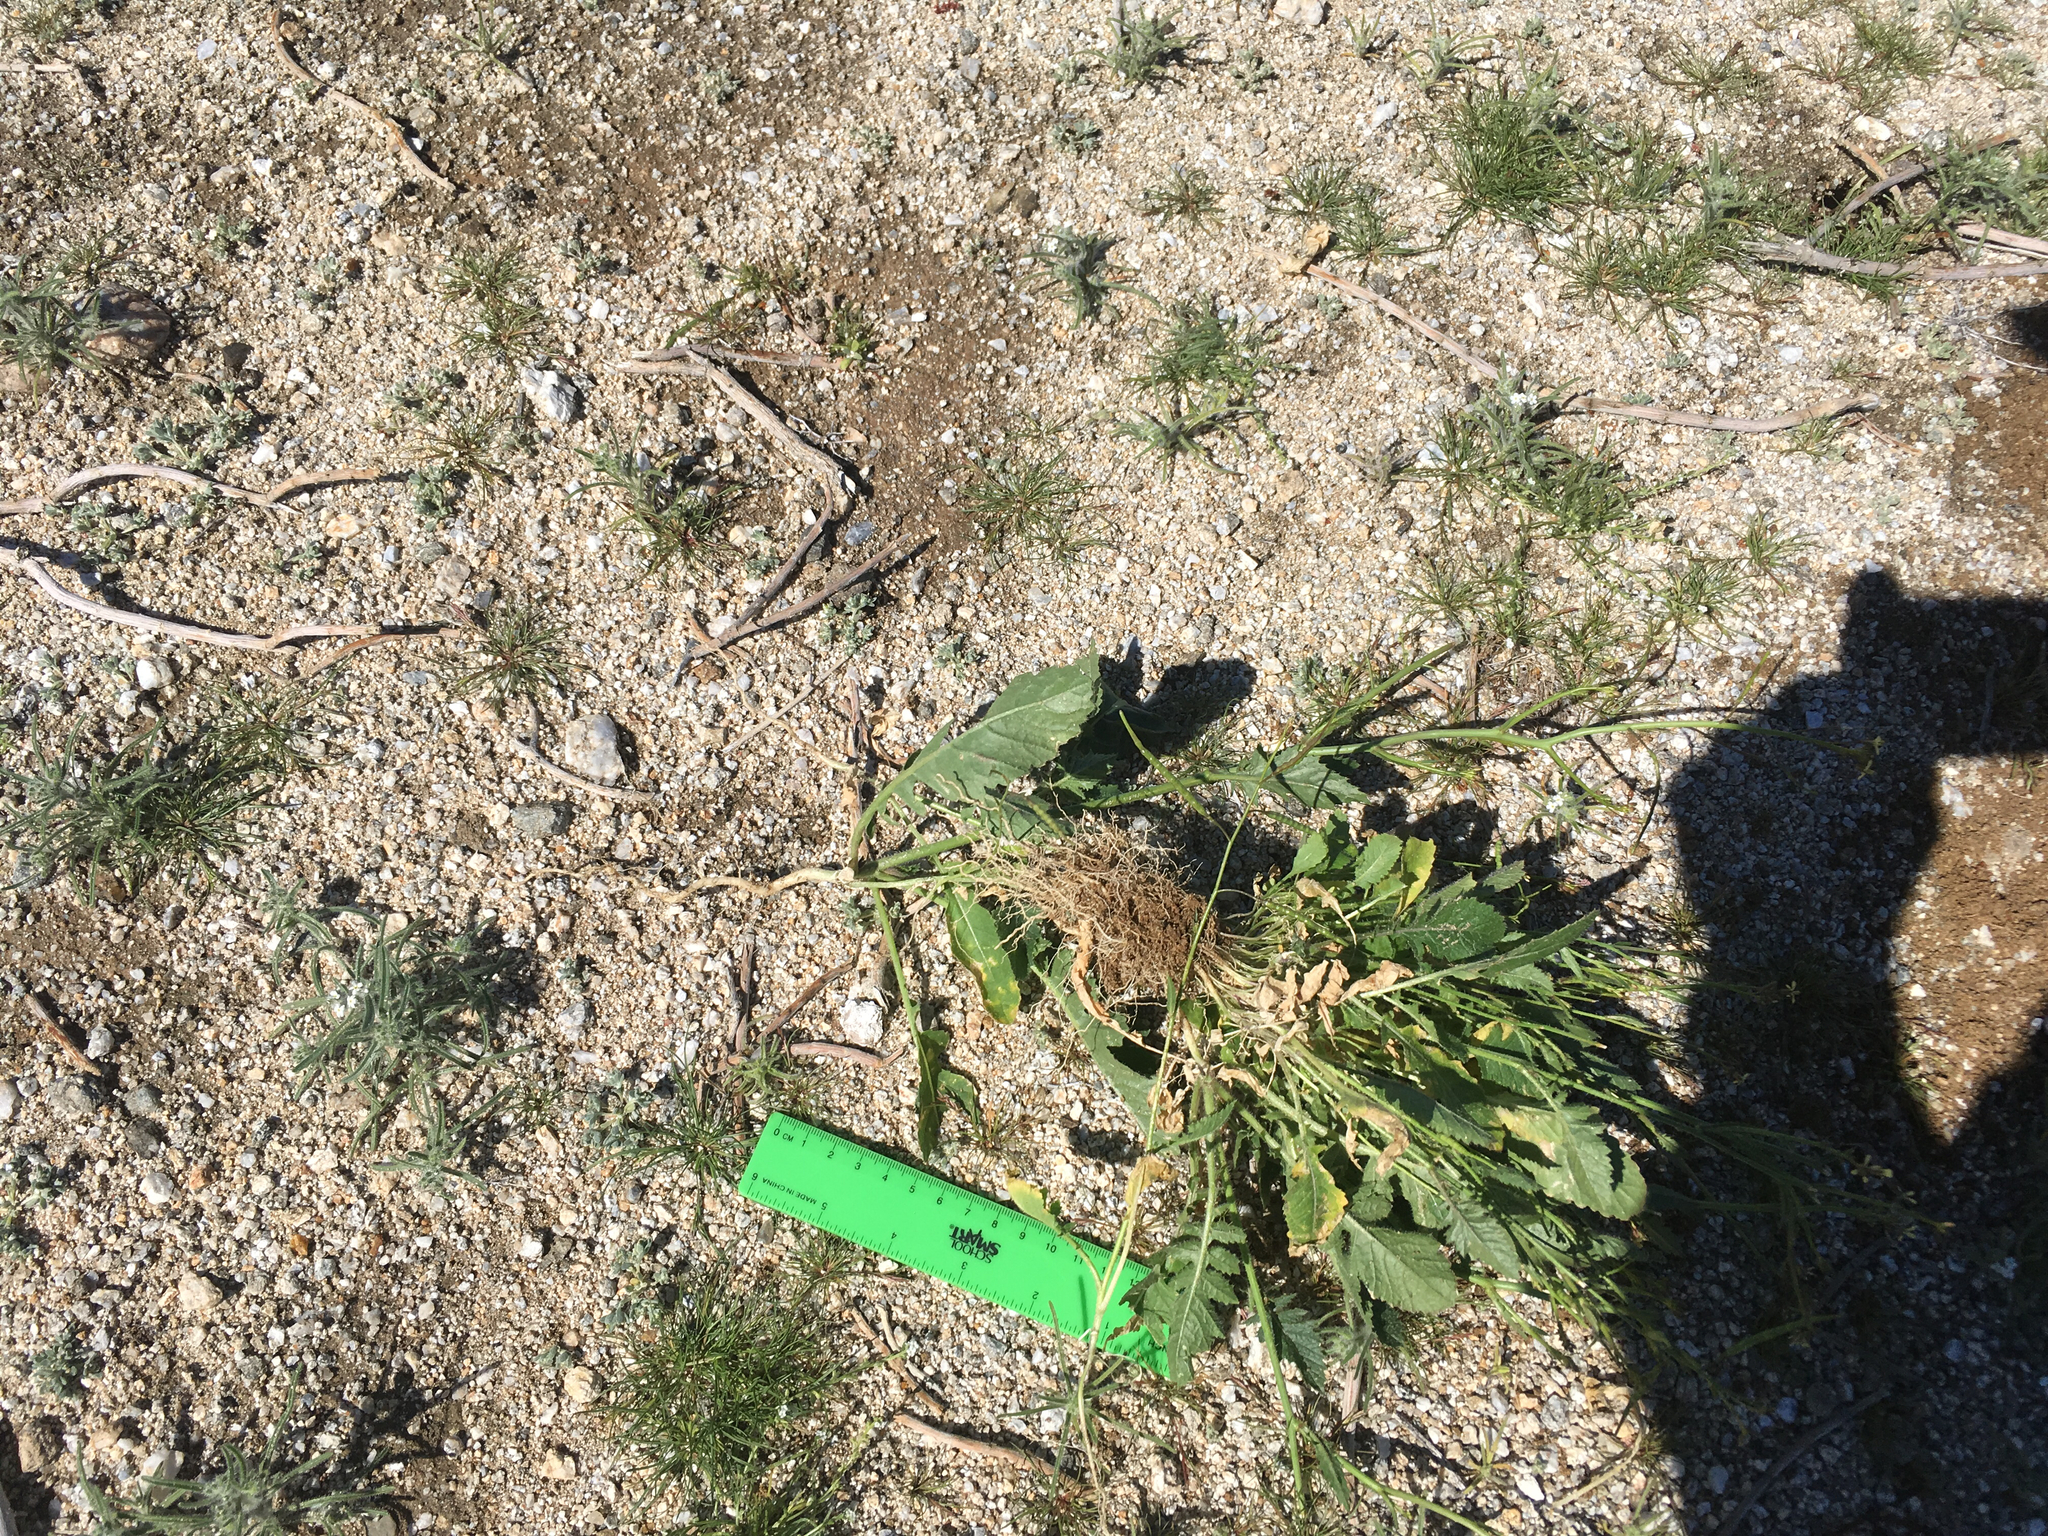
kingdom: Plantae
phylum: Tracheophyta
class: Magnoliopsida
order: Brassicales
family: Brassicaceae
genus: Brassica
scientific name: Brassica tournefortii
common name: Pale cabbage
